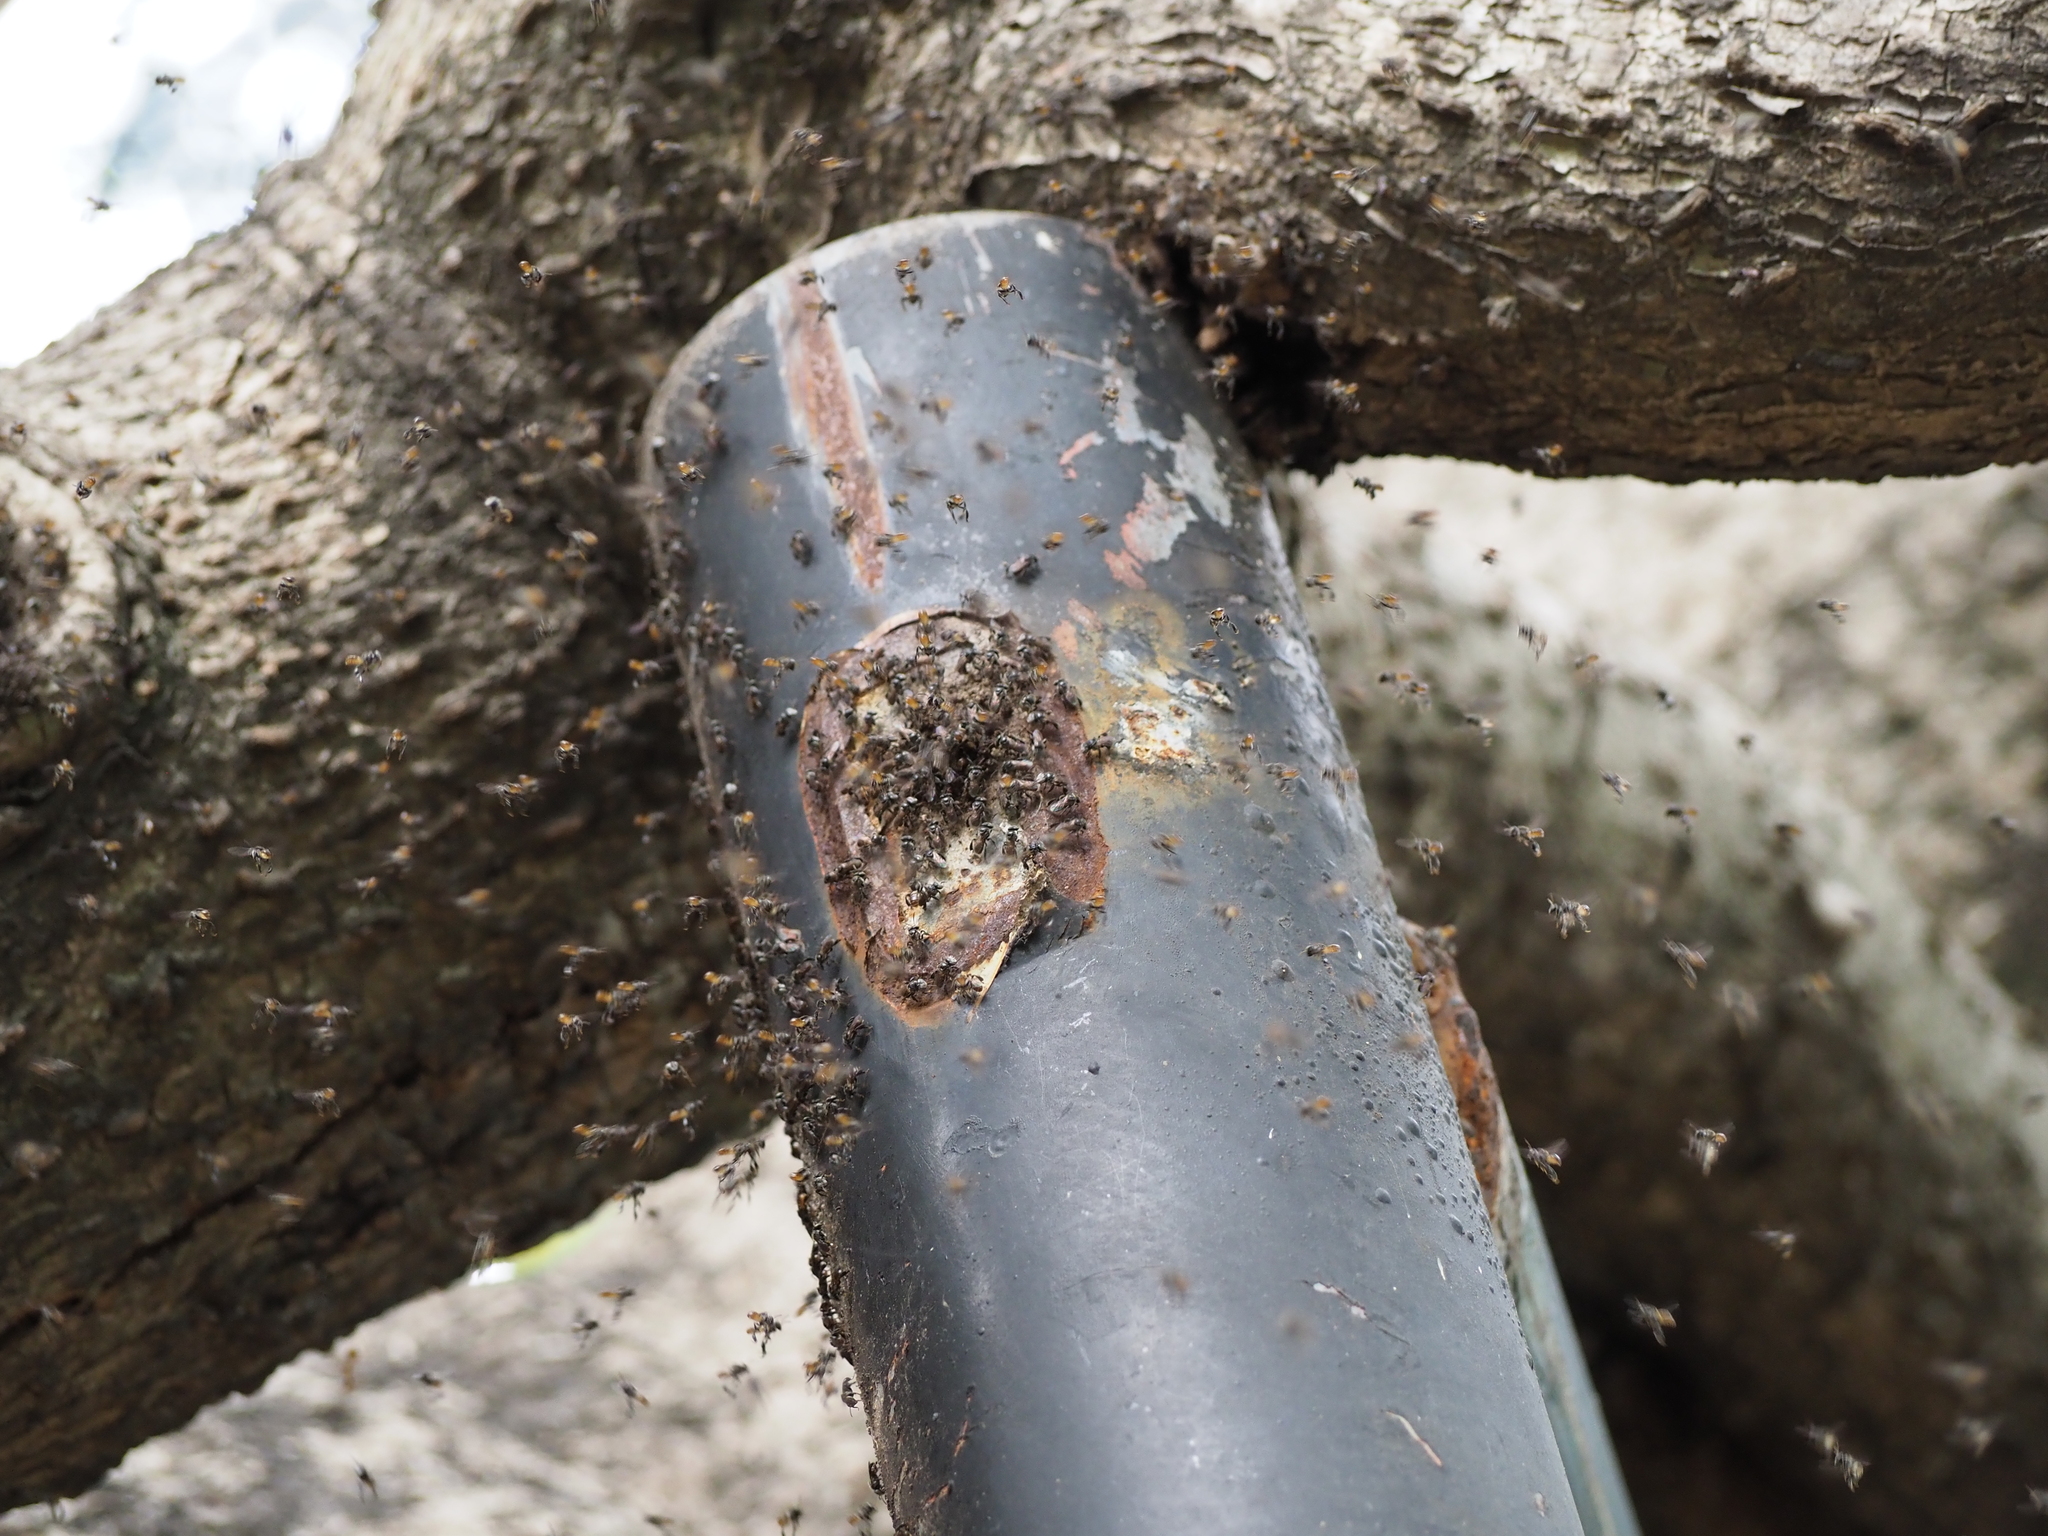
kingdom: Animalia
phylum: Arthropoda
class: Insecta
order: Hymenoptera
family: Apidae
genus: Tetragonula
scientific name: Tetragonula pagdeni
